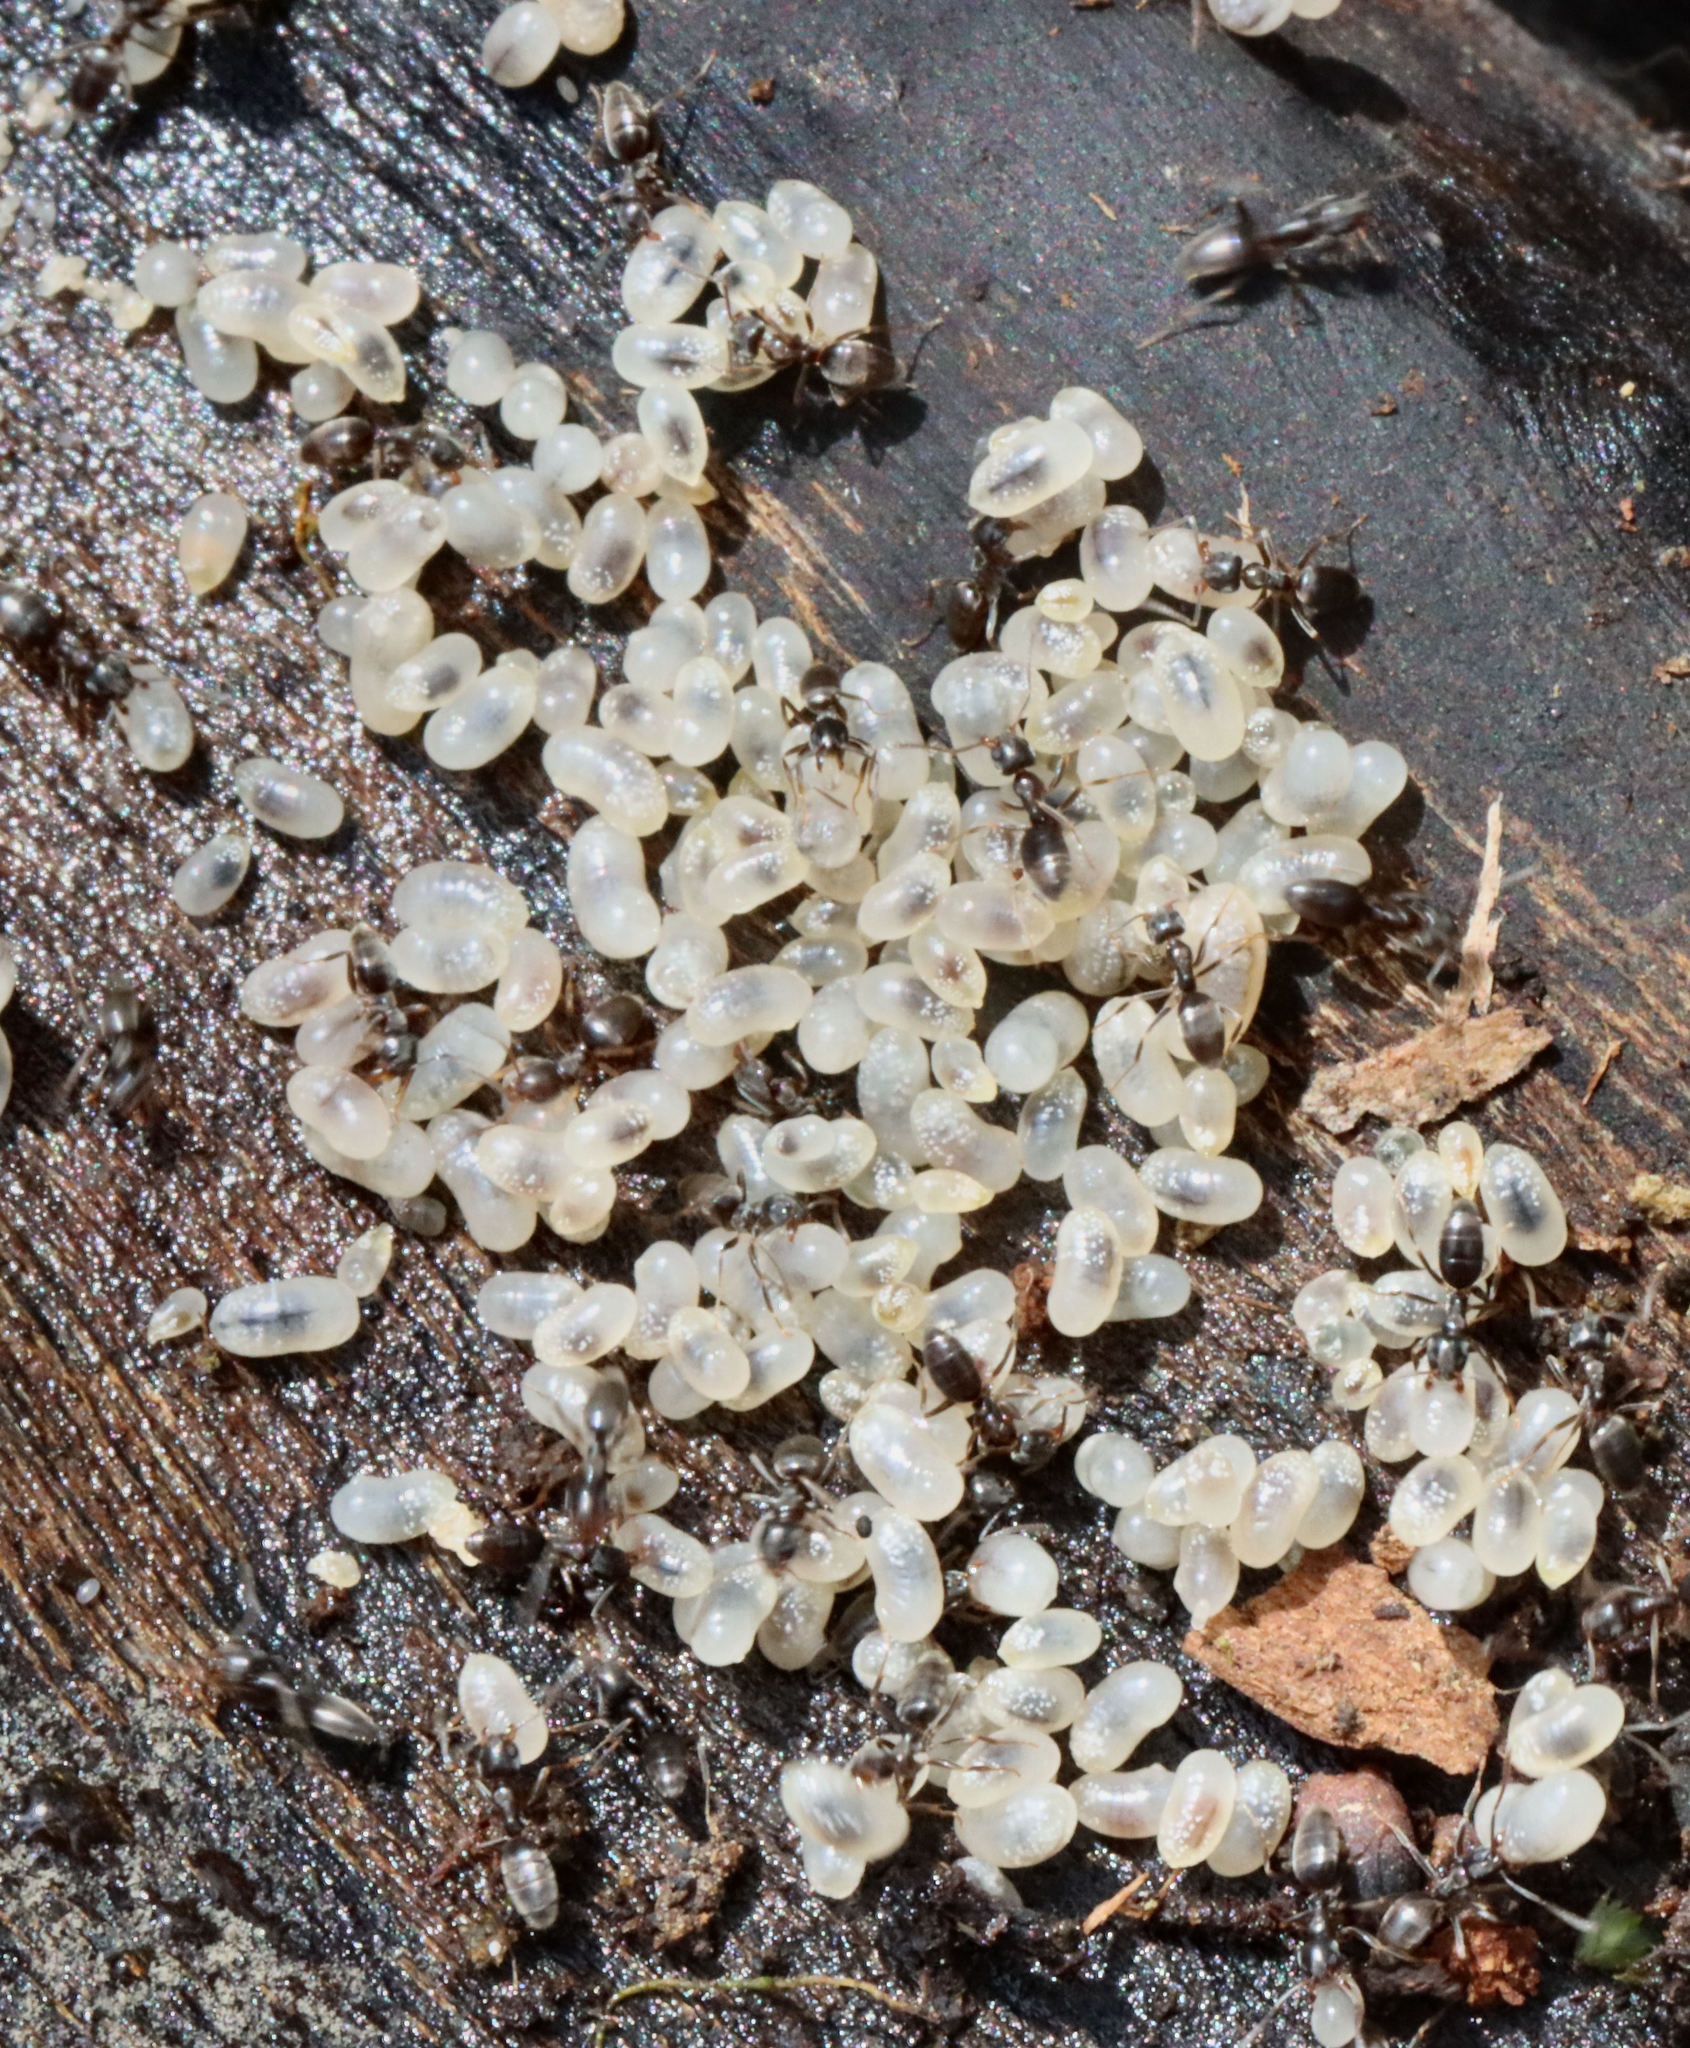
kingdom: Animalia
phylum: Arthropoda
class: Insecta
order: Hymenoptera
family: Formicidae
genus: Tapinoma
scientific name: Tapinoma sessile
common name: Odorous house ant
